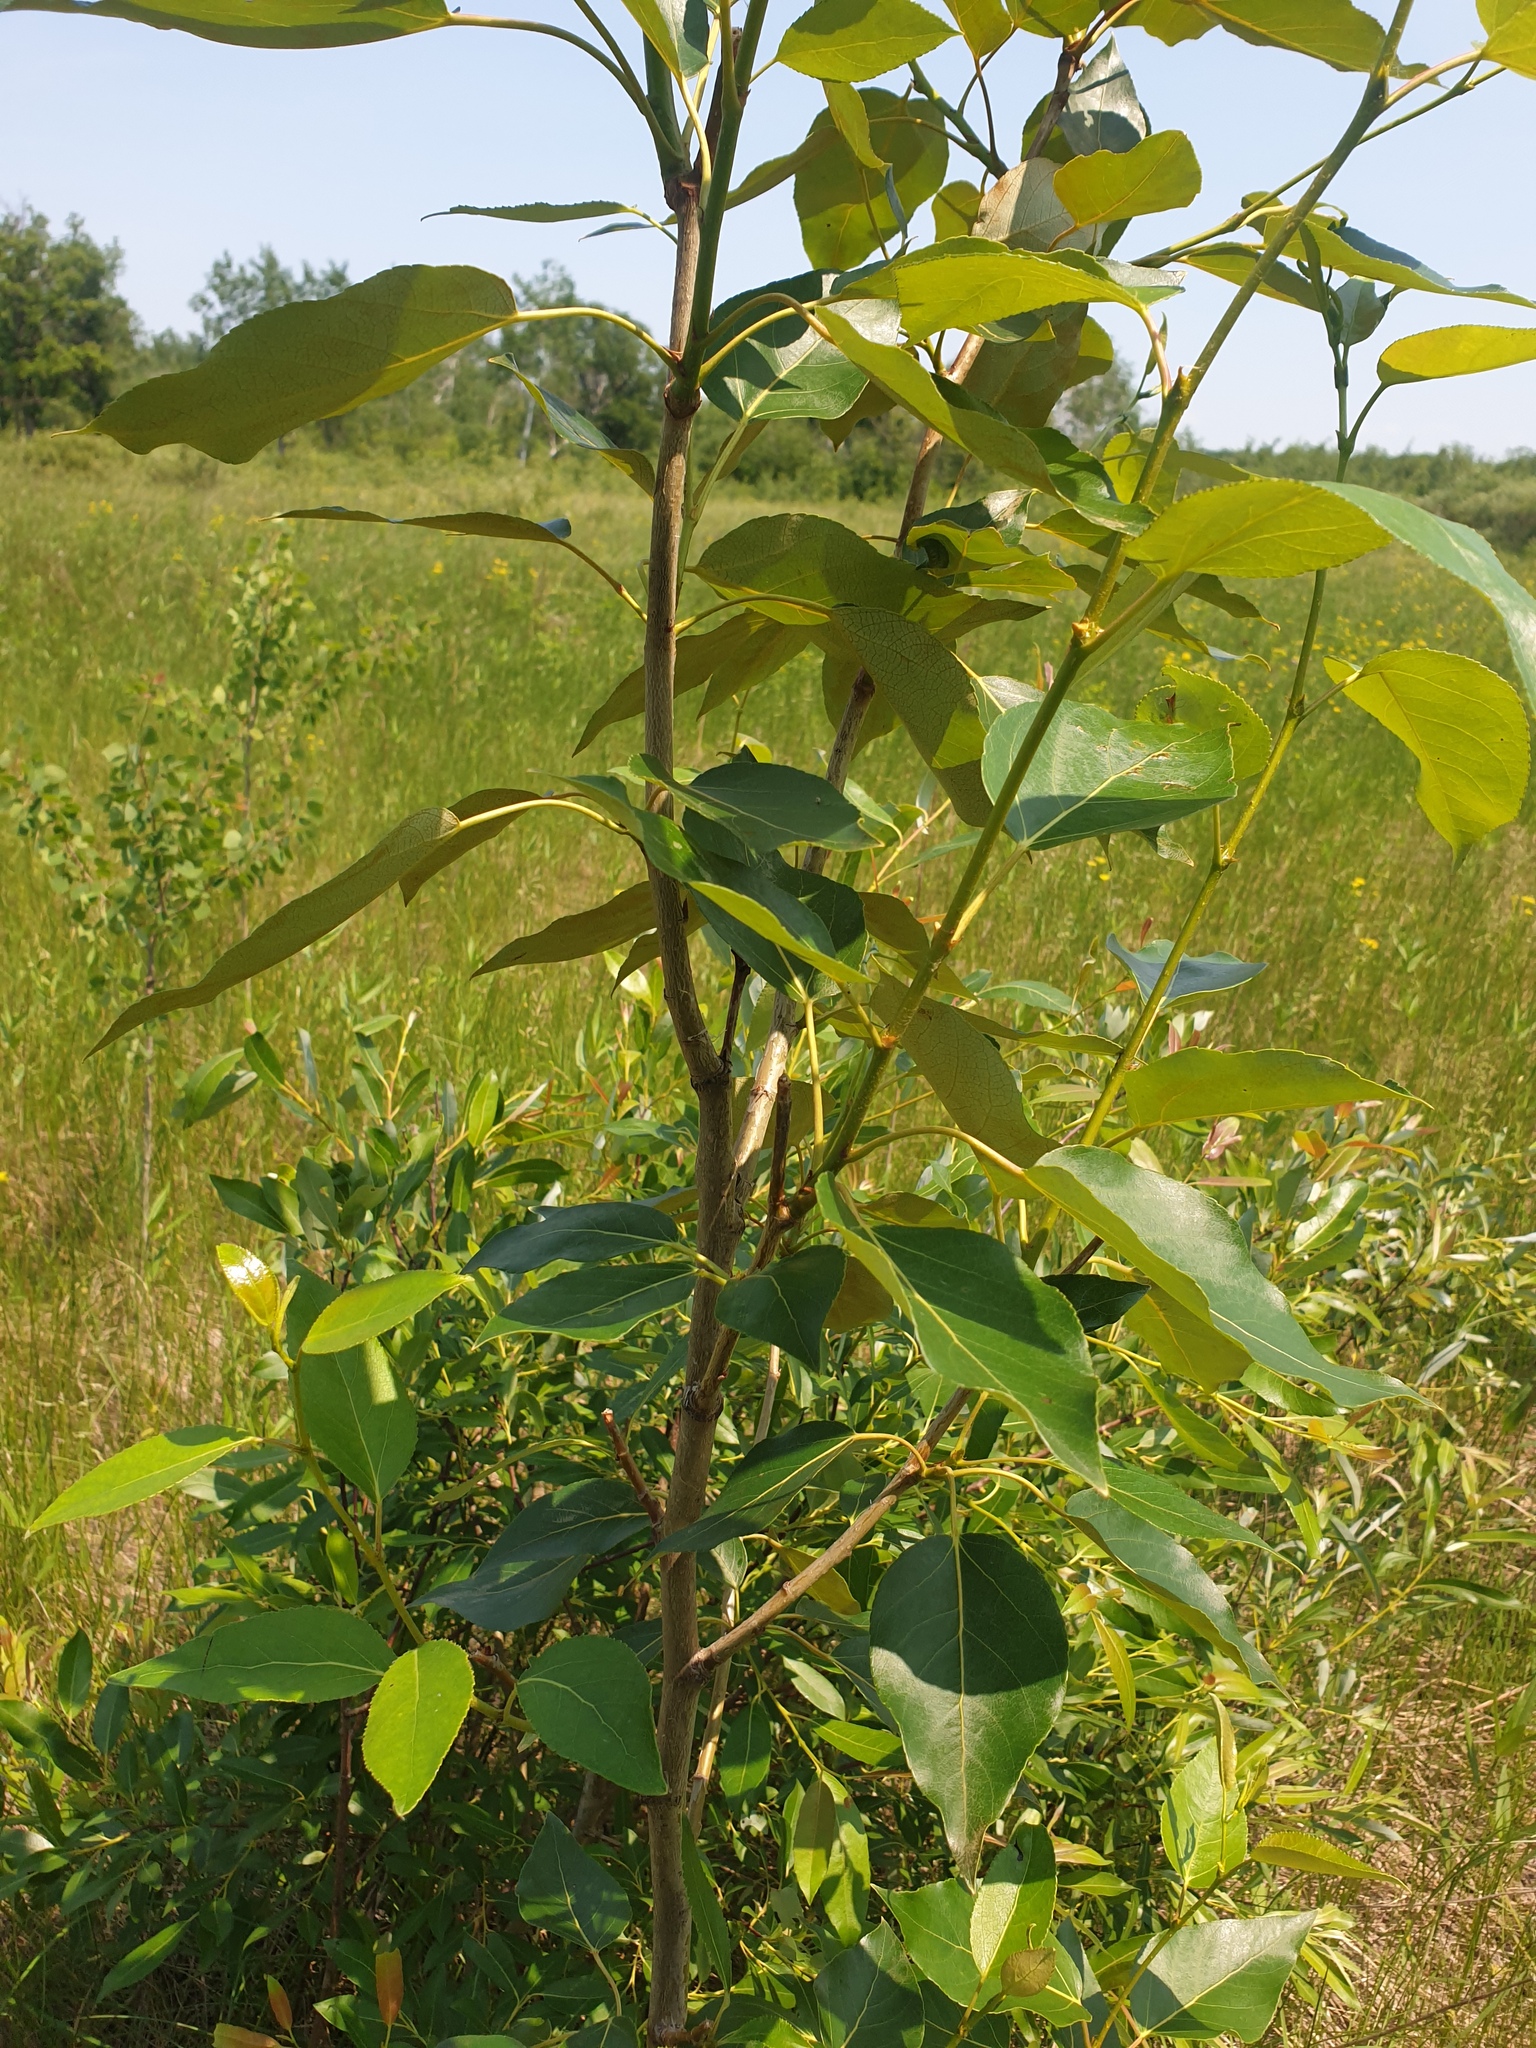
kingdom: Plantae
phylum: Tracheophyta
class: Magnoliopsida
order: Malpighiales
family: Salicaceae
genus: Populus
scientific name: Populus balsamifera
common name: Balsam poplar
